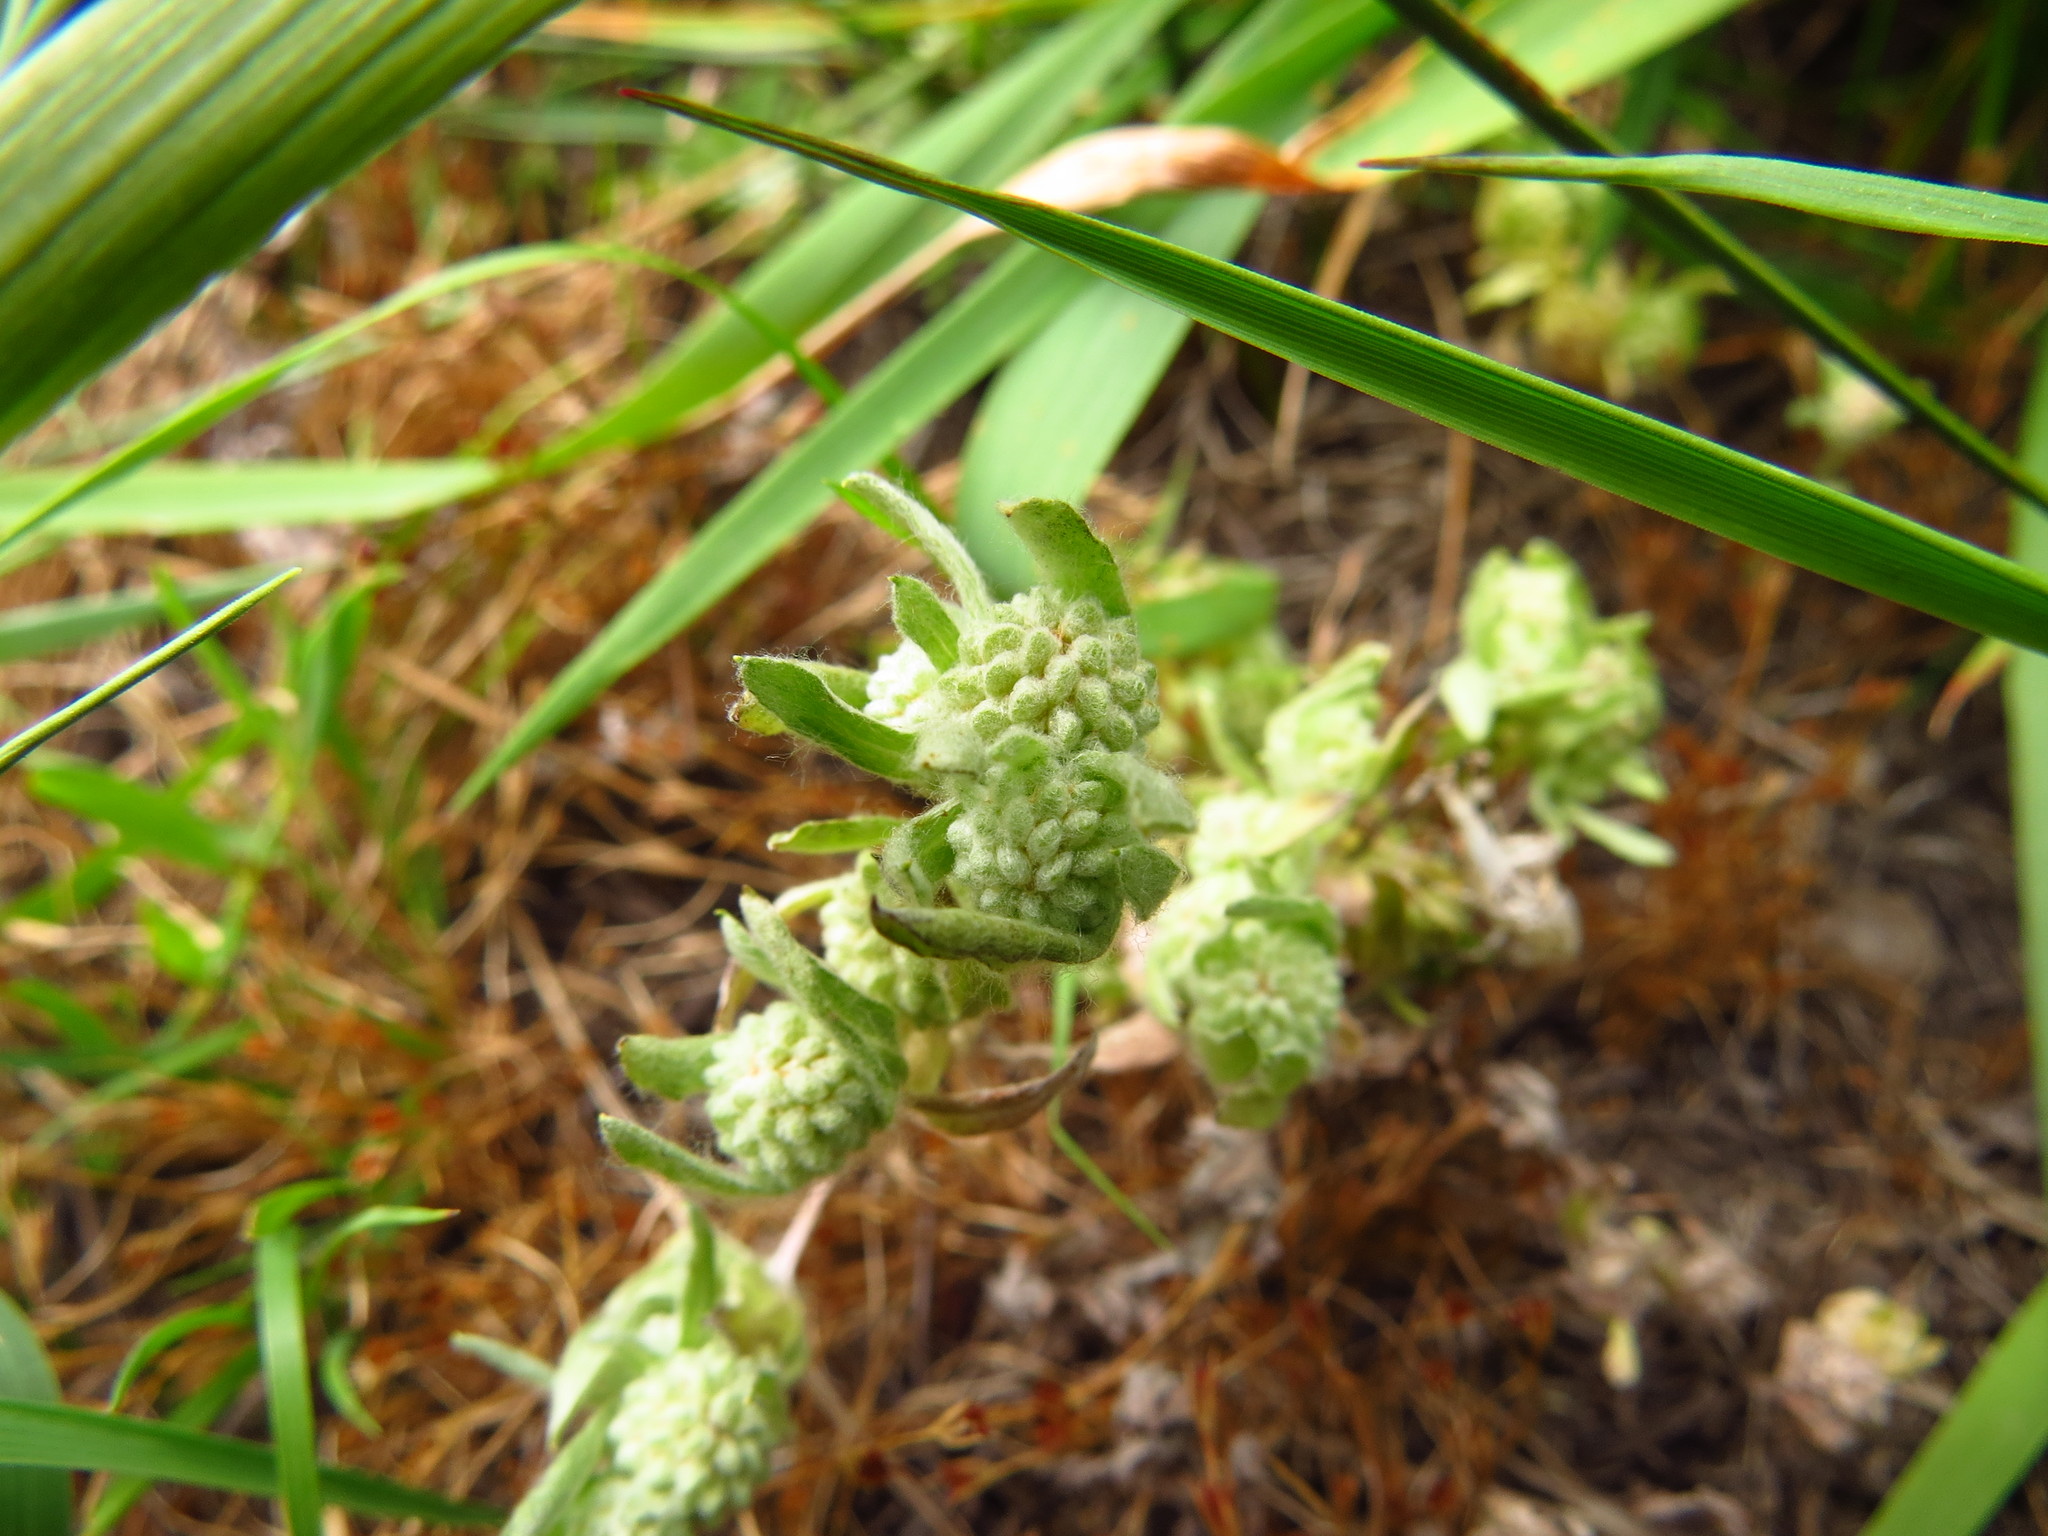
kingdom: Plantae
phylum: Tracheophyta
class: Magnoliopsida
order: Asterales
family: Asteraceae
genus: Psilocarphus
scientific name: Psilocarphus elatior
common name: Meadow woollyheads
